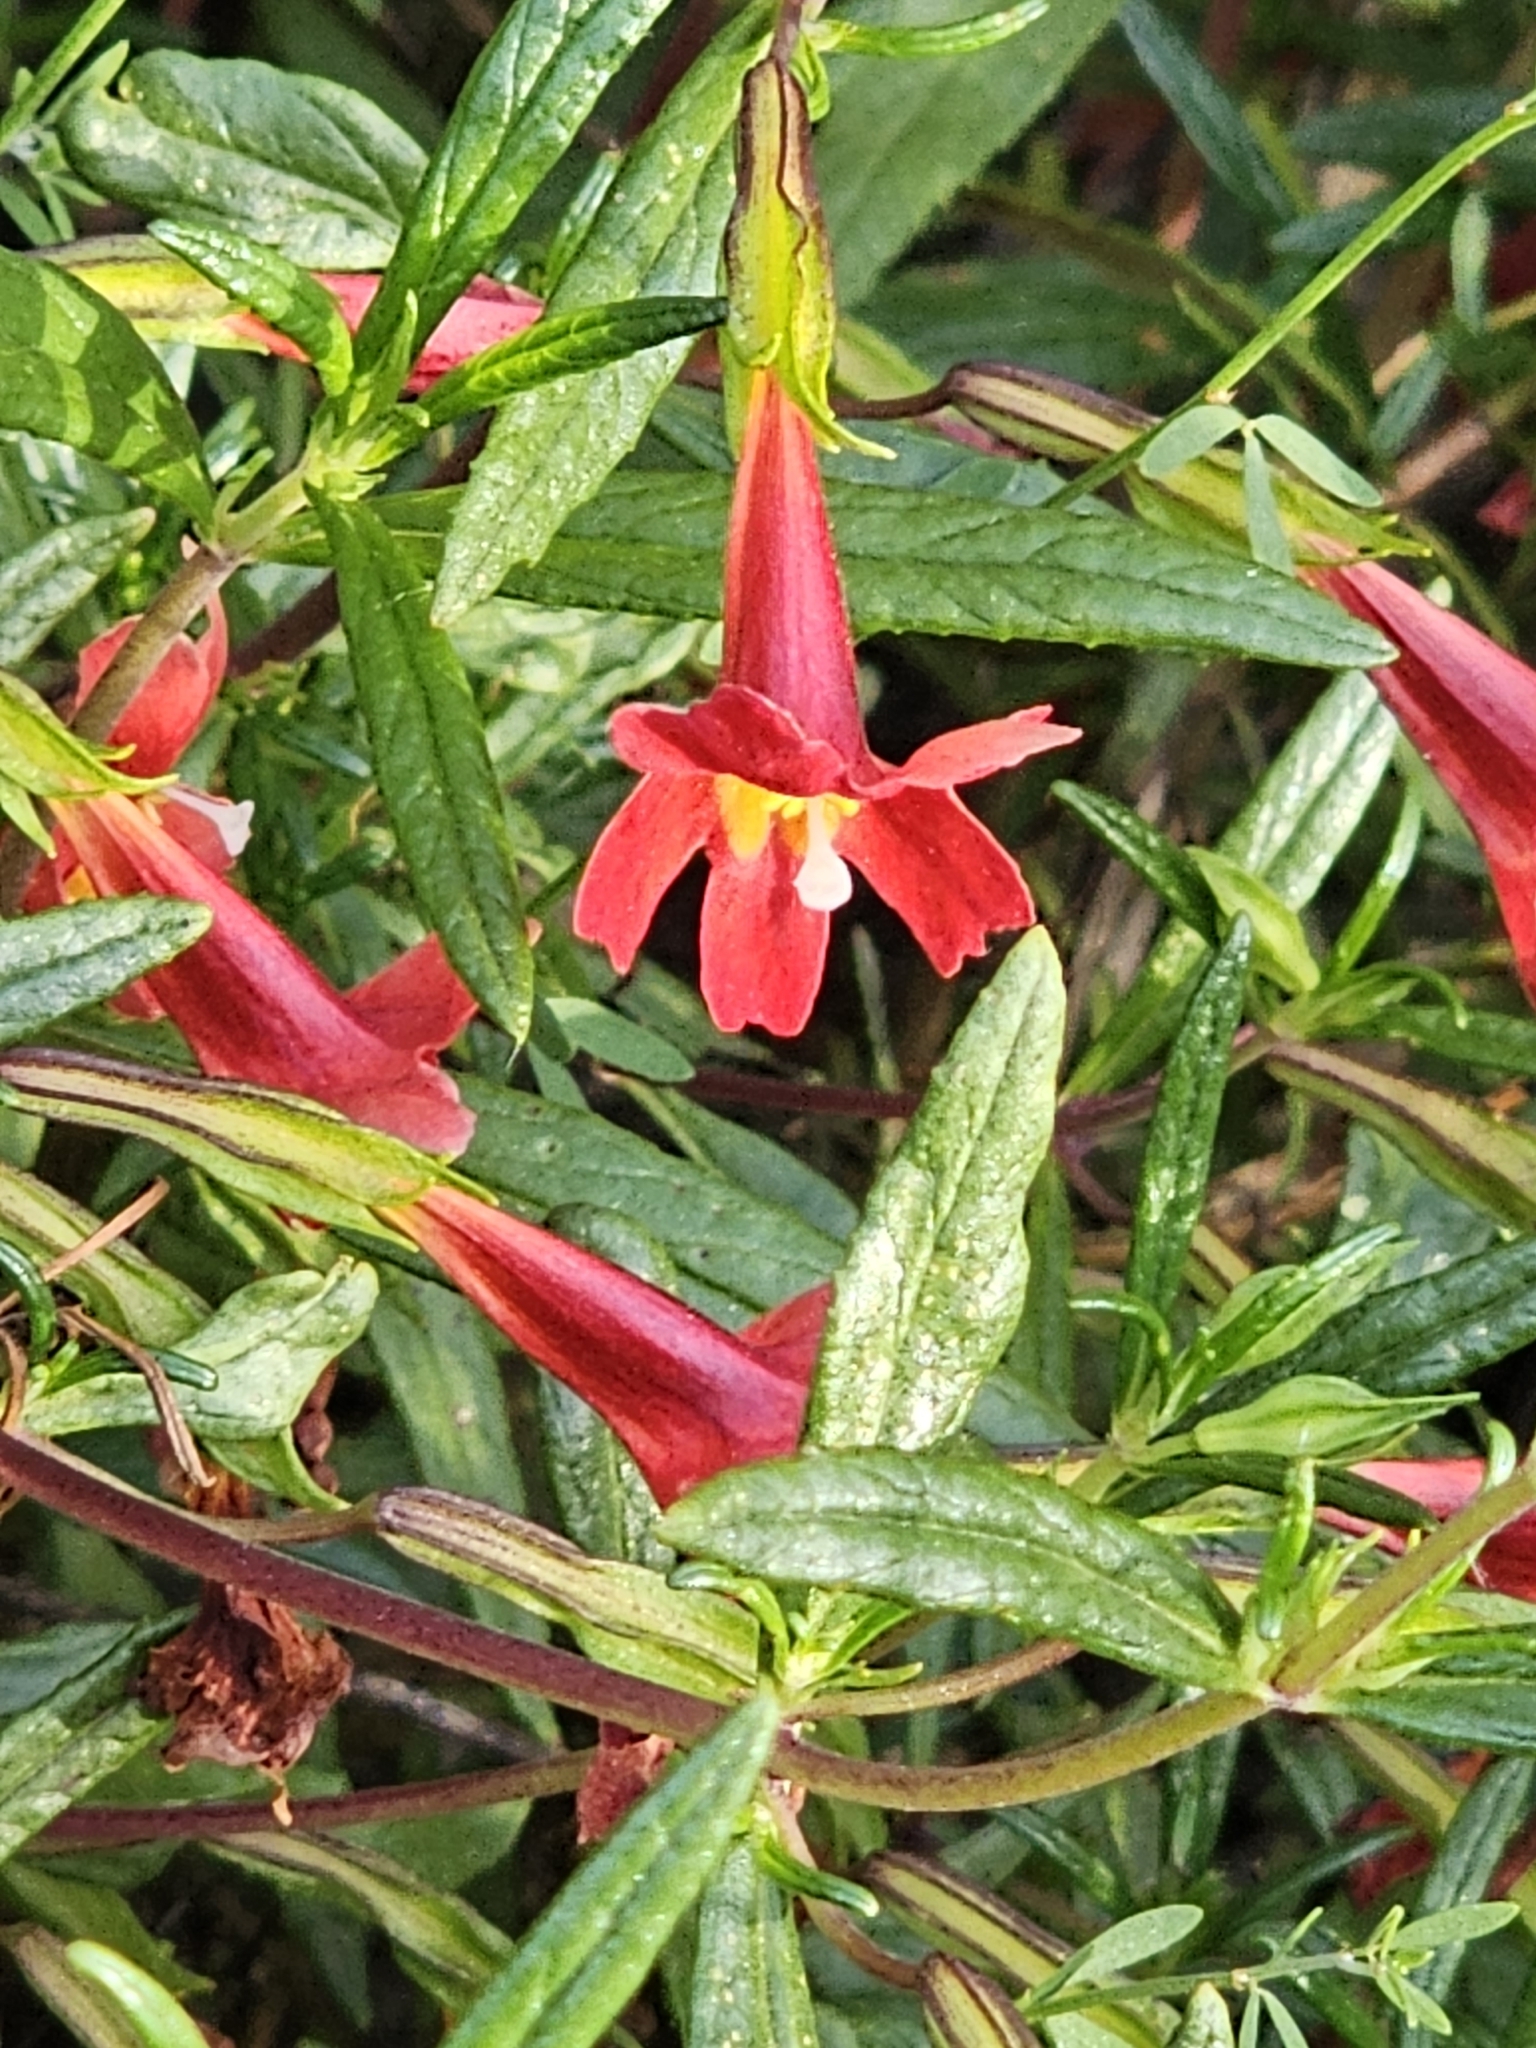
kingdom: Plantae
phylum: Tracheophyta
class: Magnoliopsida
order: Lamiales
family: Phrymaceae
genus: Diplacus
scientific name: Diplacus puniceus
